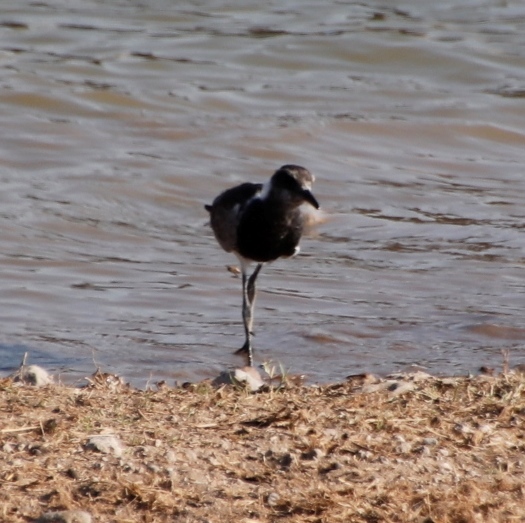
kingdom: Animalia
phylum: Chordata
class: Aves
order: Charadriiformes
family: Charadriidae
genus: Vanellus
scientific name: Vanellus armatus
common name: Blacksmith lapwing
